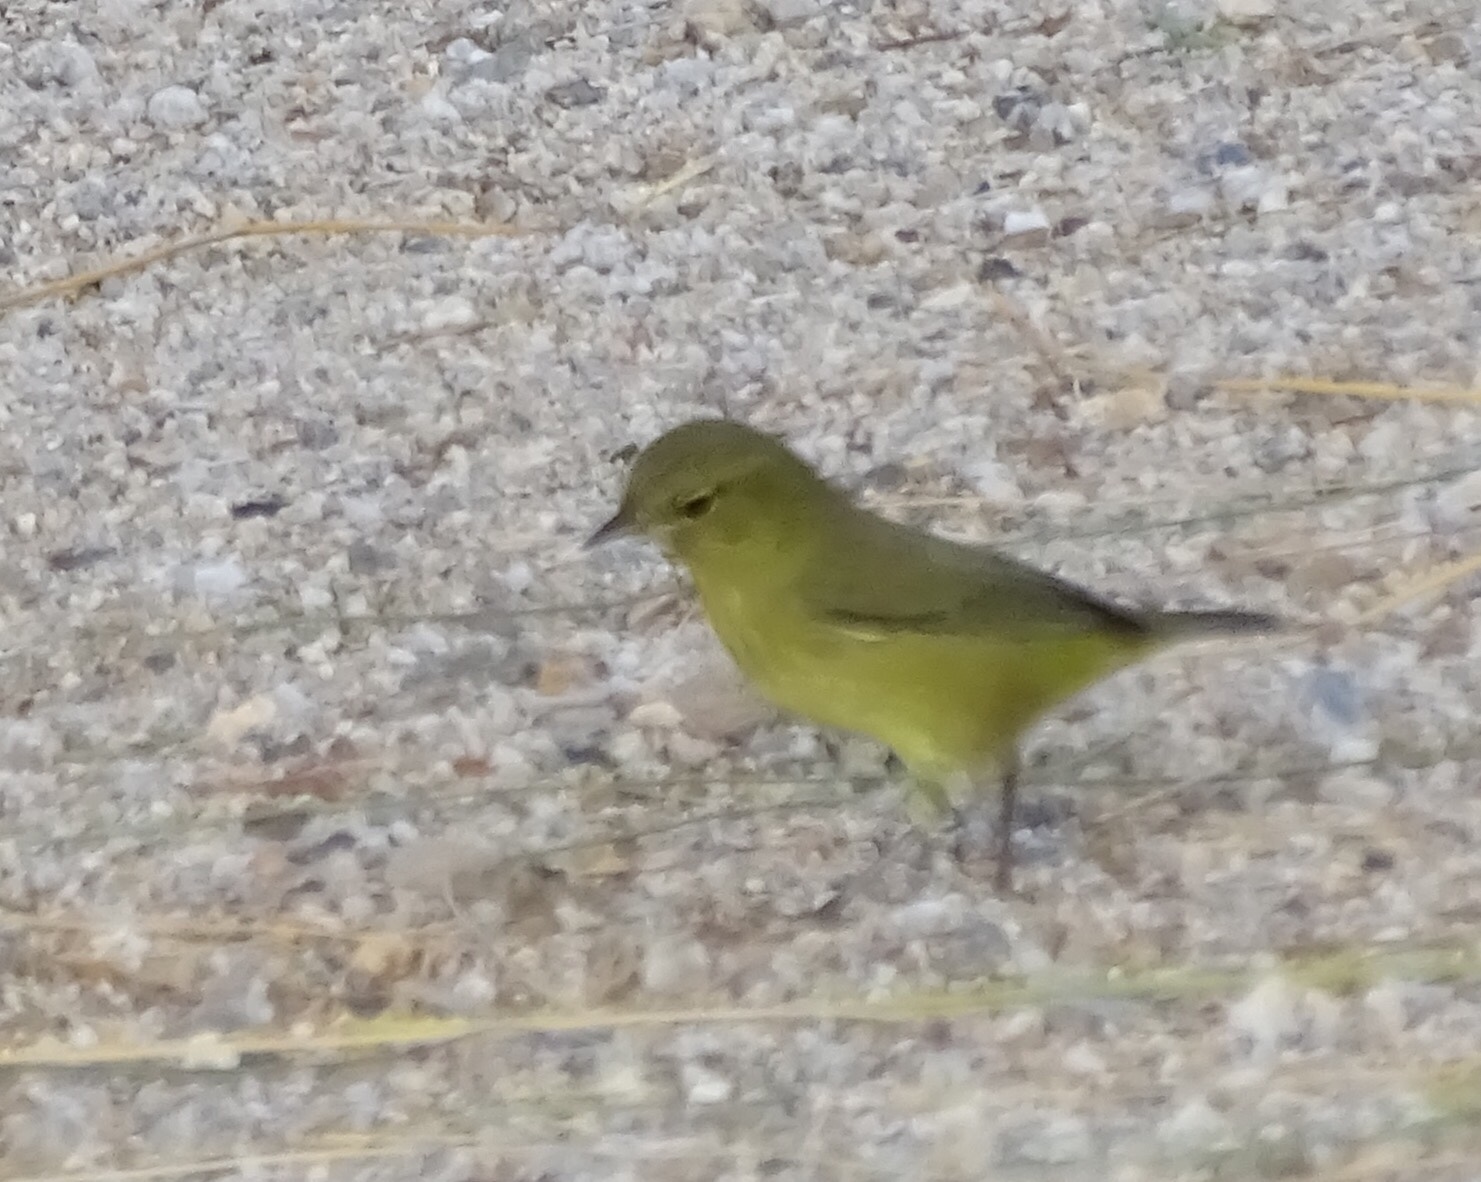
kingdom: Animalia
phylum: Chordata
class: Aves
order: Passeriformes
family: Parulidae
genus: Leiothlypis
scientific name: Leiothlypis celata
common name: Orange-crowned warbler
